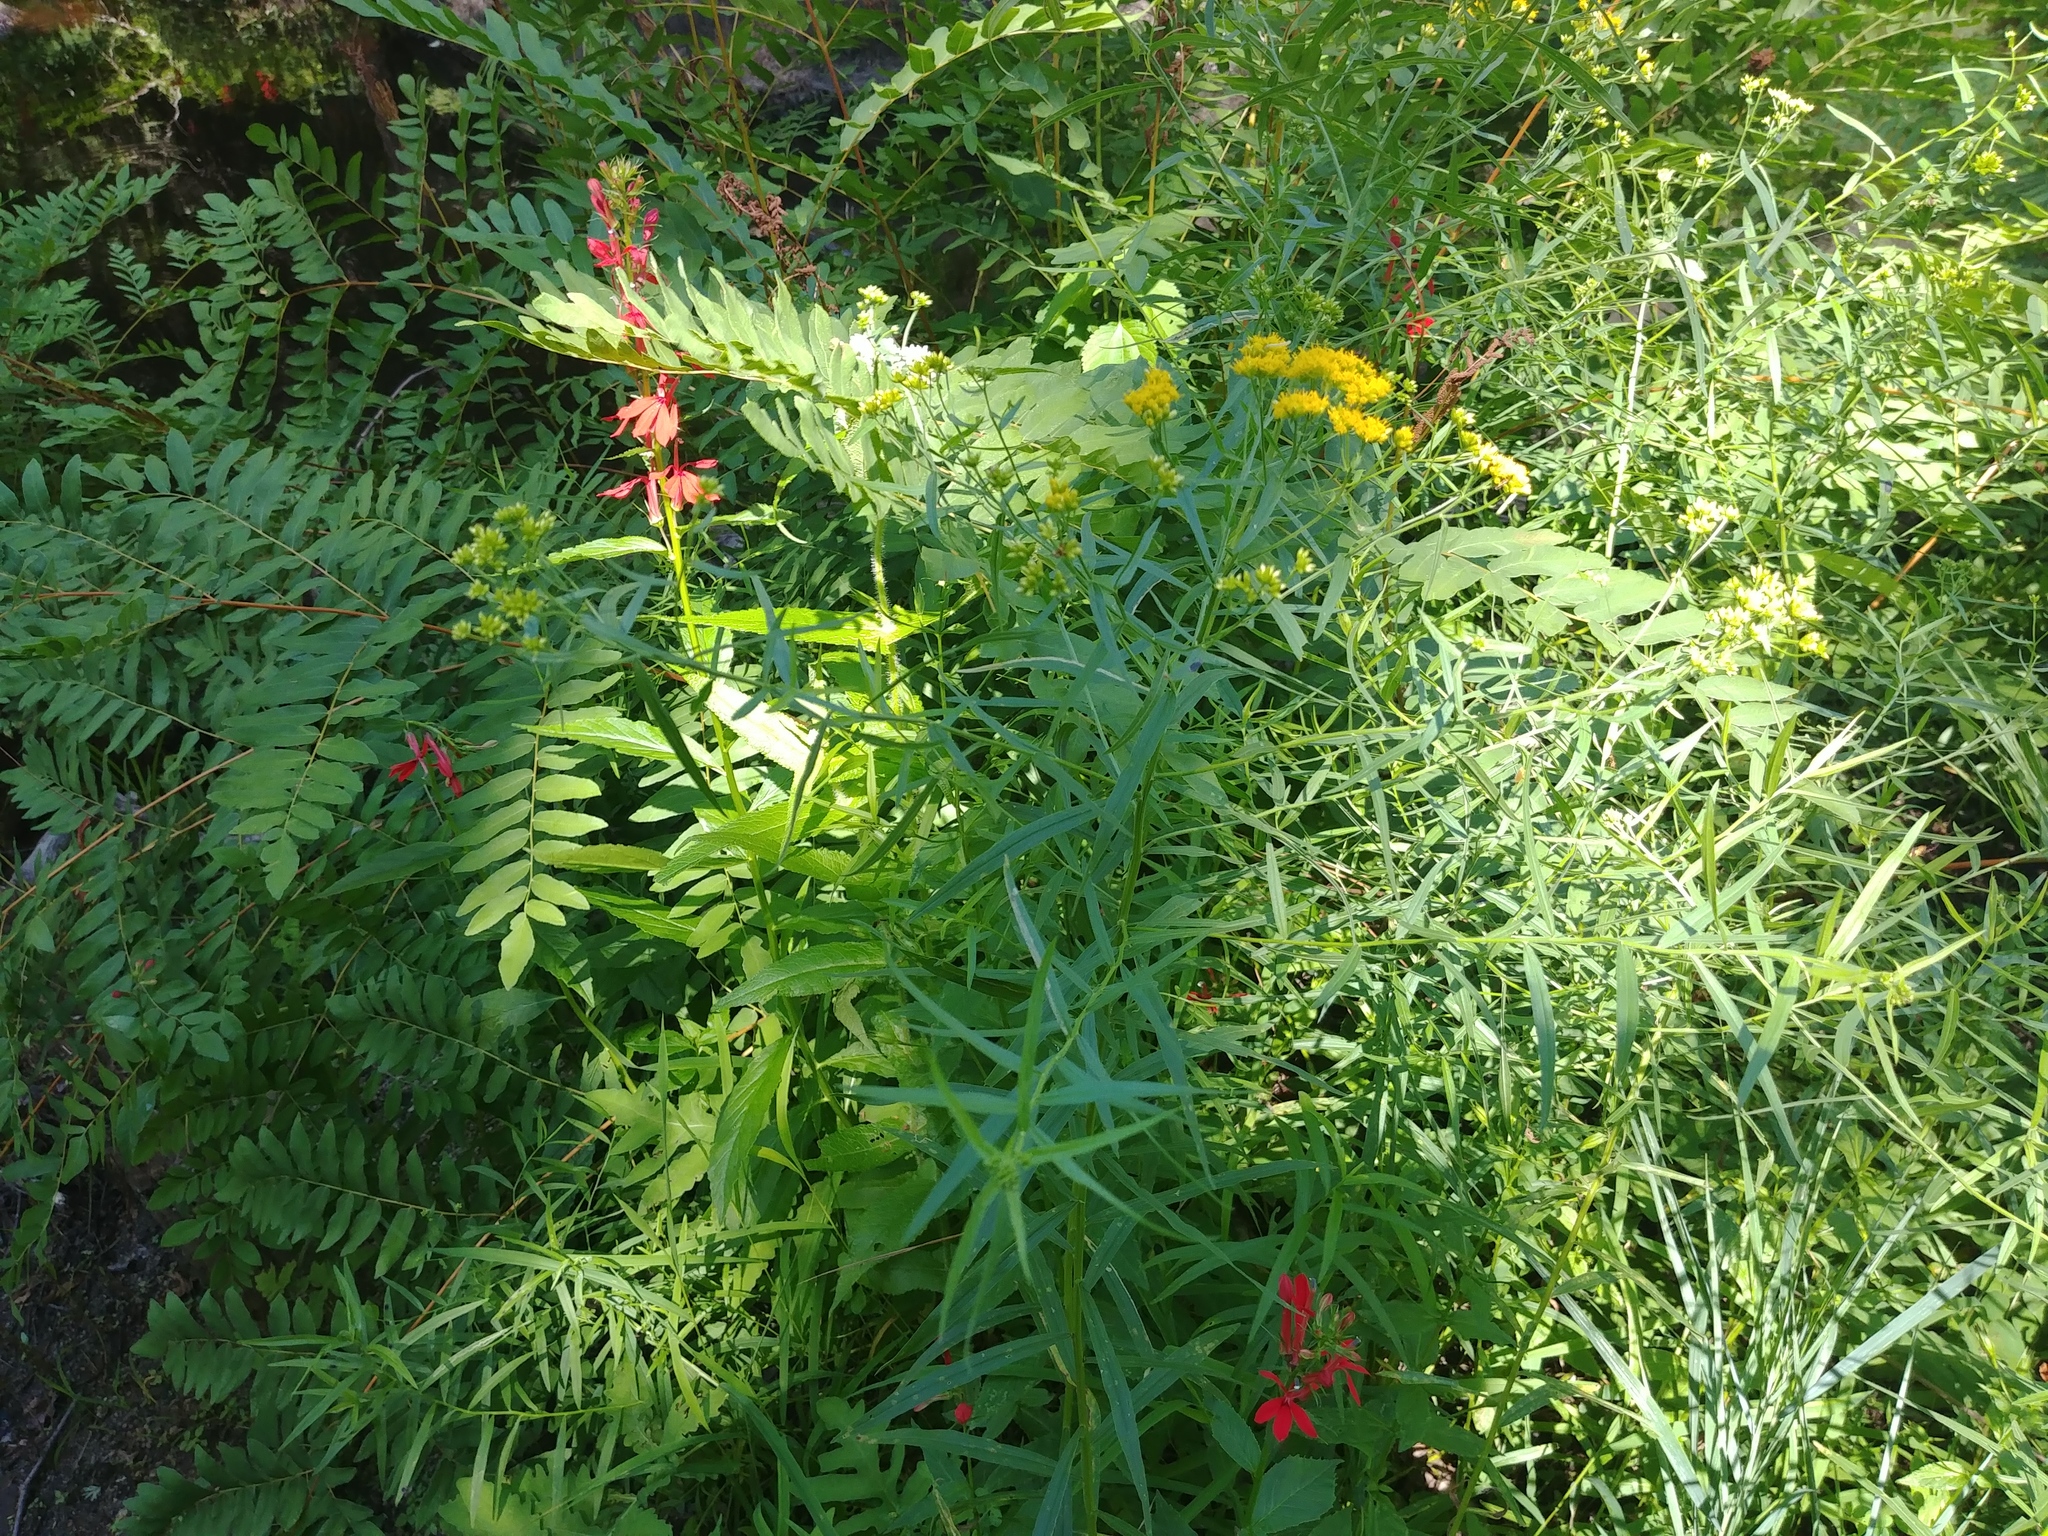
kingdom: Plantae
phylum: Tracheophyta
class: Magnoliopsida
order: Asterales
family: Asteraceae
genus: Euthamia
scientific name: Euthamia graminifolia
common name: Common goldentop
